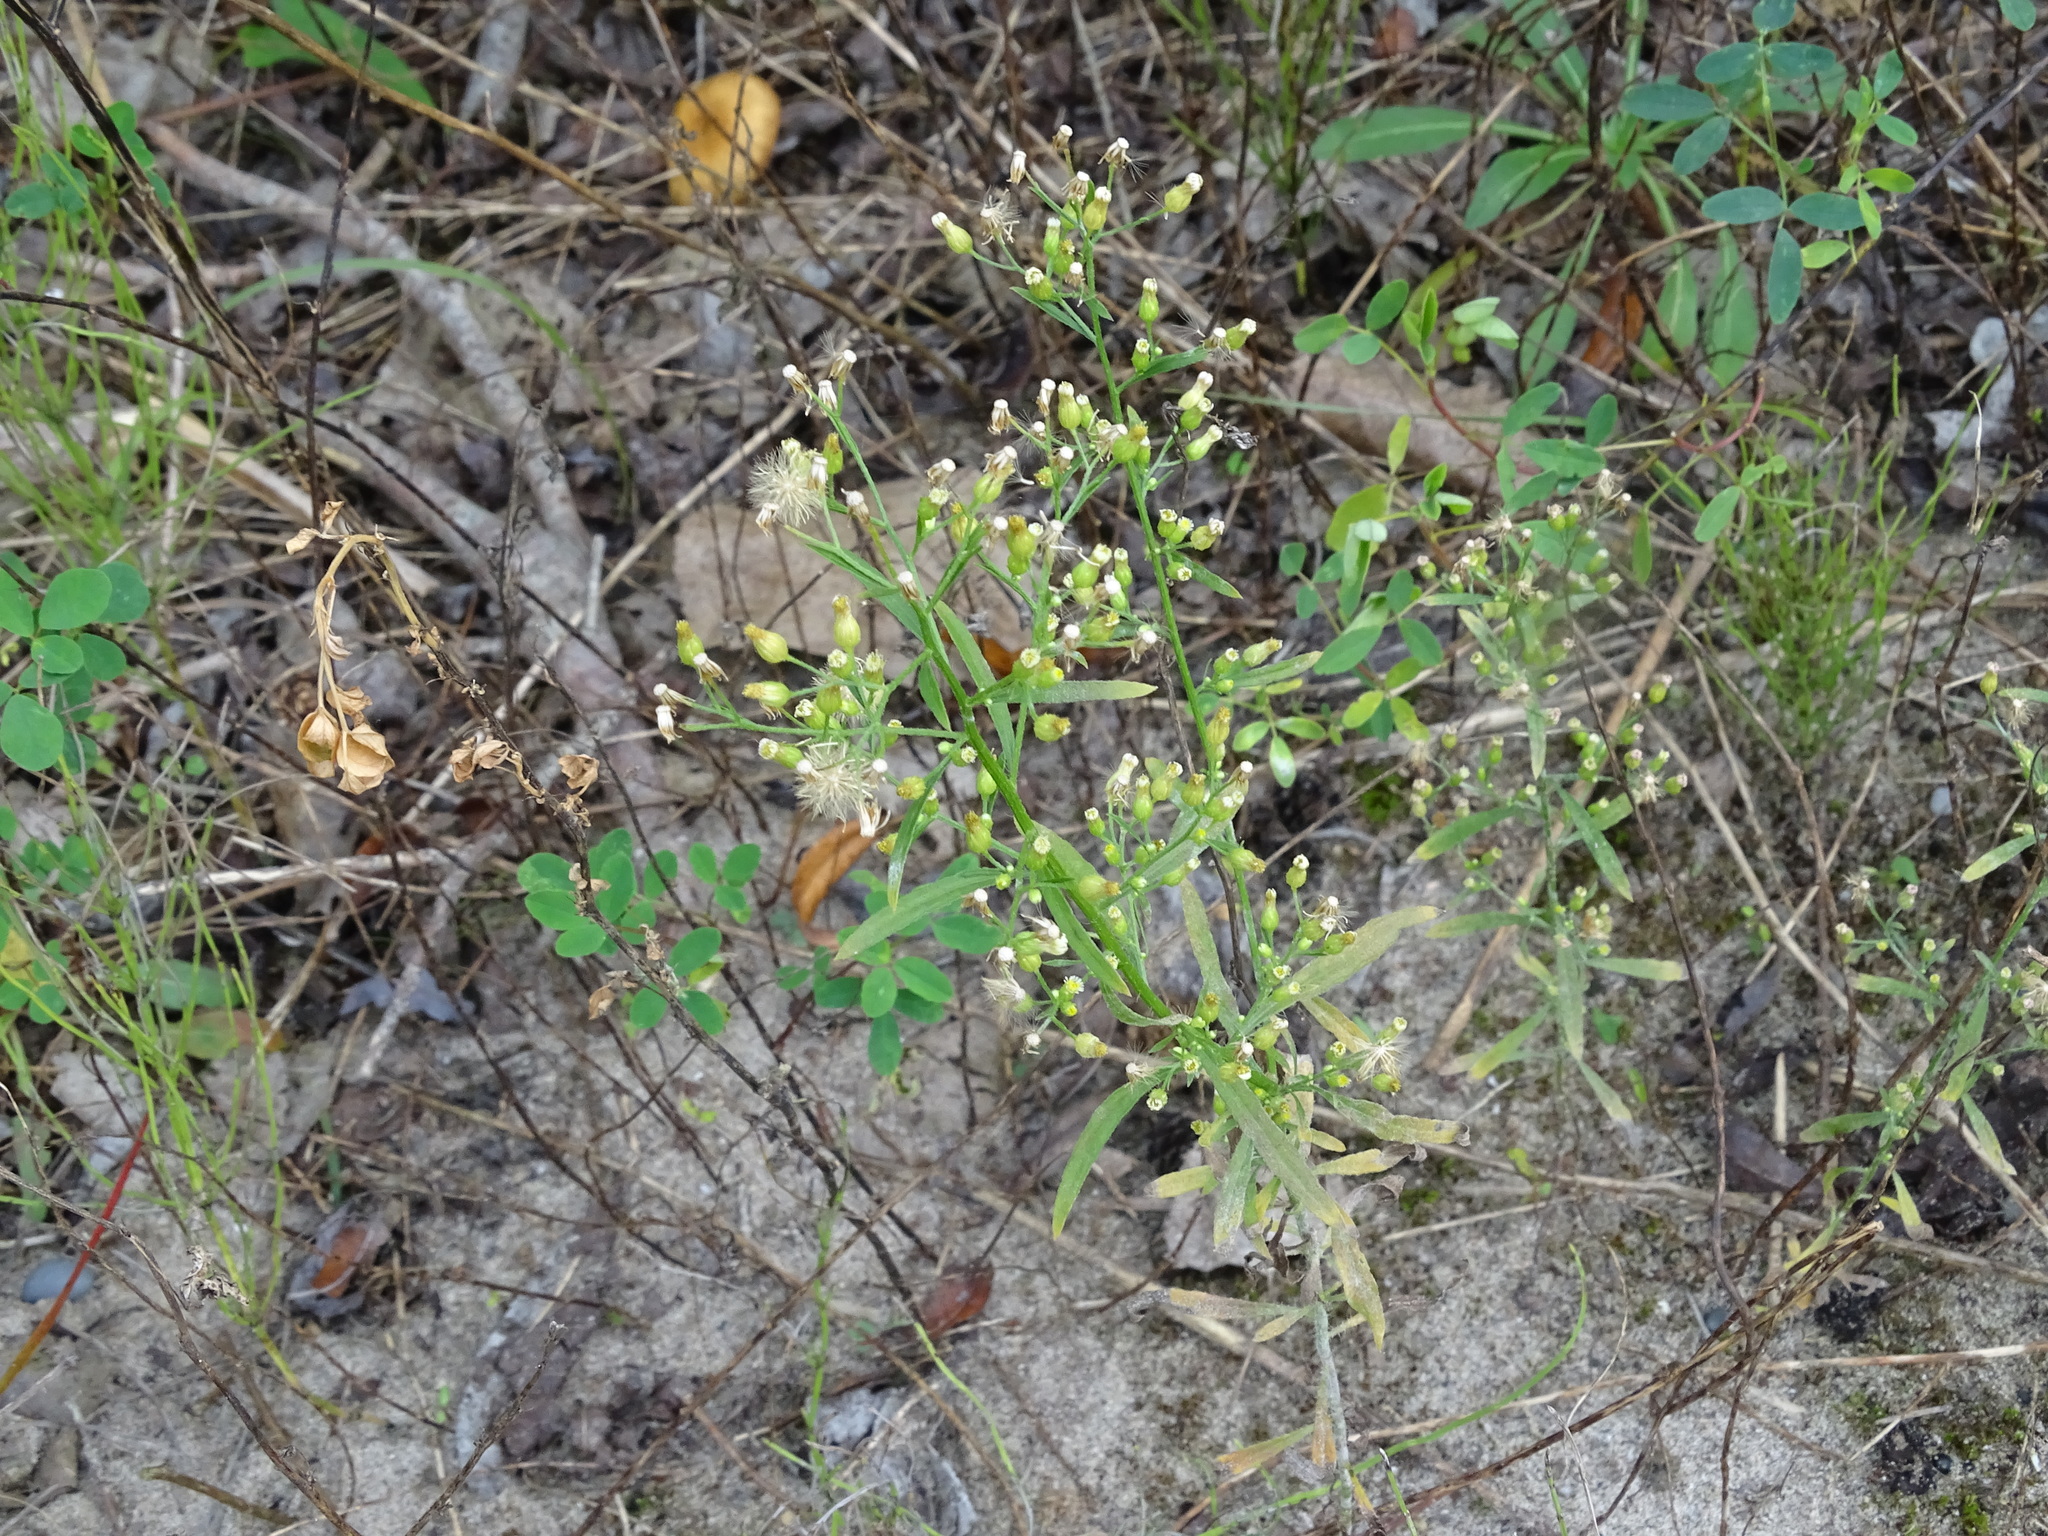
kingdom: Plantae
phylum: Tracheophyta
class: Magnoliopsida
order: Asterales
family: Asteraceae
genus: Erigeron
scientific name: Erigeron canadensis
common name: Canadian fleabane
